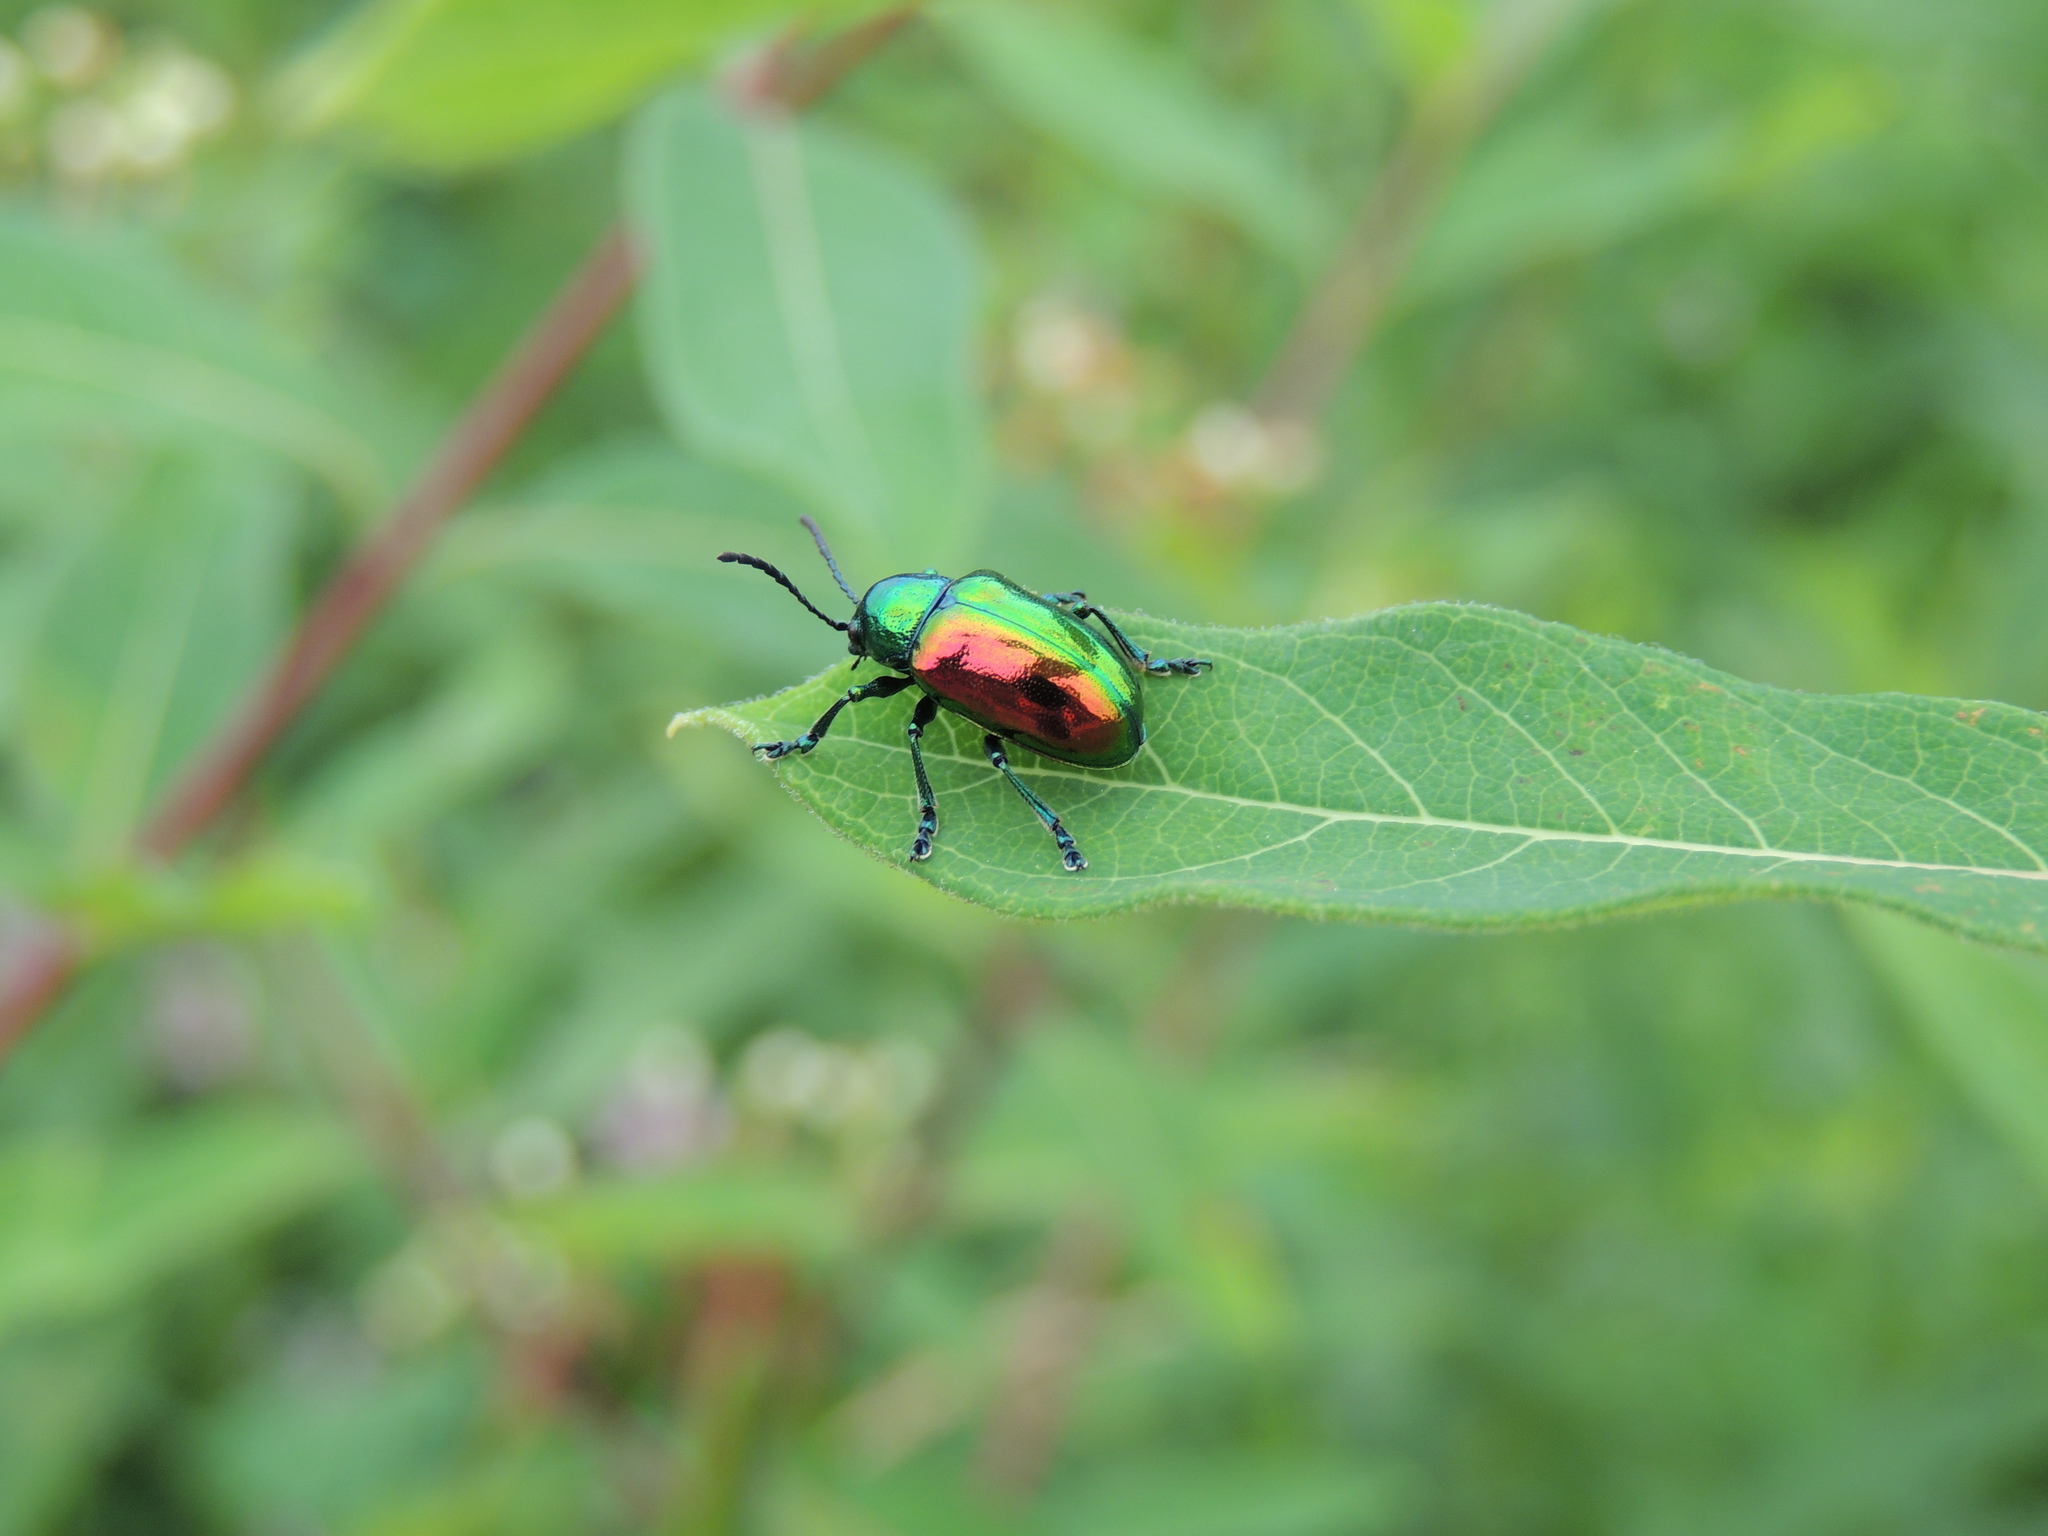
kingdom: Animalia
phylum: Arthropoda
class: Insecta
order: Coleoptera
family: Chrysomelidae
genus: Chrysochus
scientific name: Chrysochus auratus
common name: Dogbane leaf beetle
